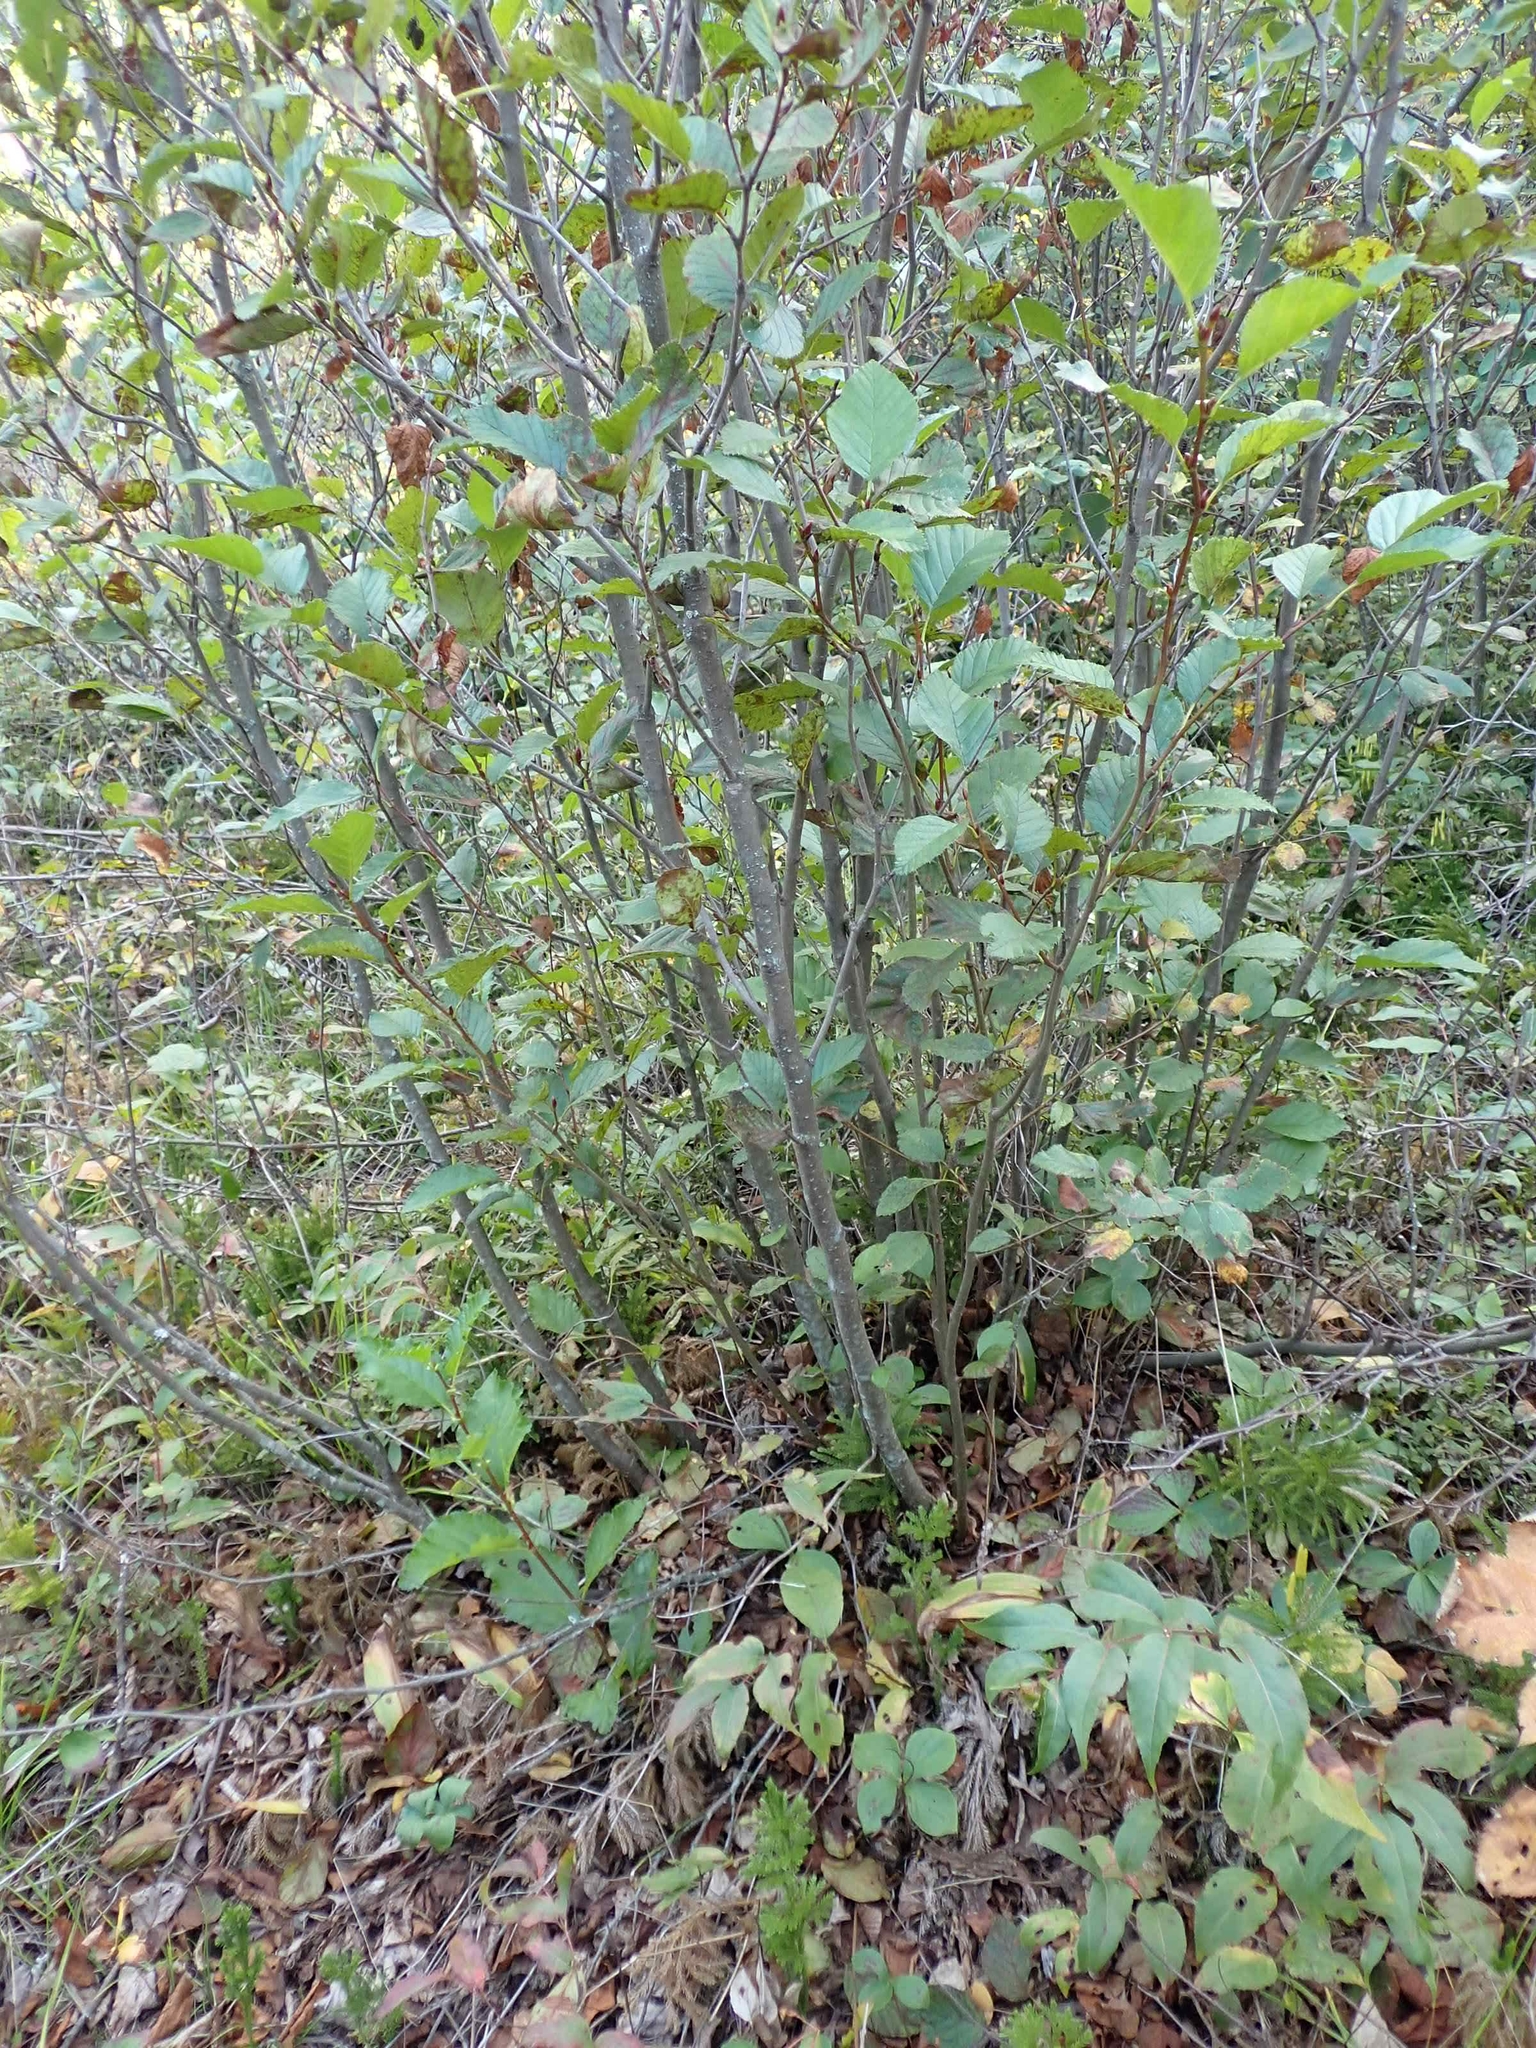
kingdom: Plantae
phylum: Tracheophyta
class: Magnoliopsida
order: Fagales
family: Betulaceae
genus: Alnus
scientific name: Alnus incana
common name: Grey alder
